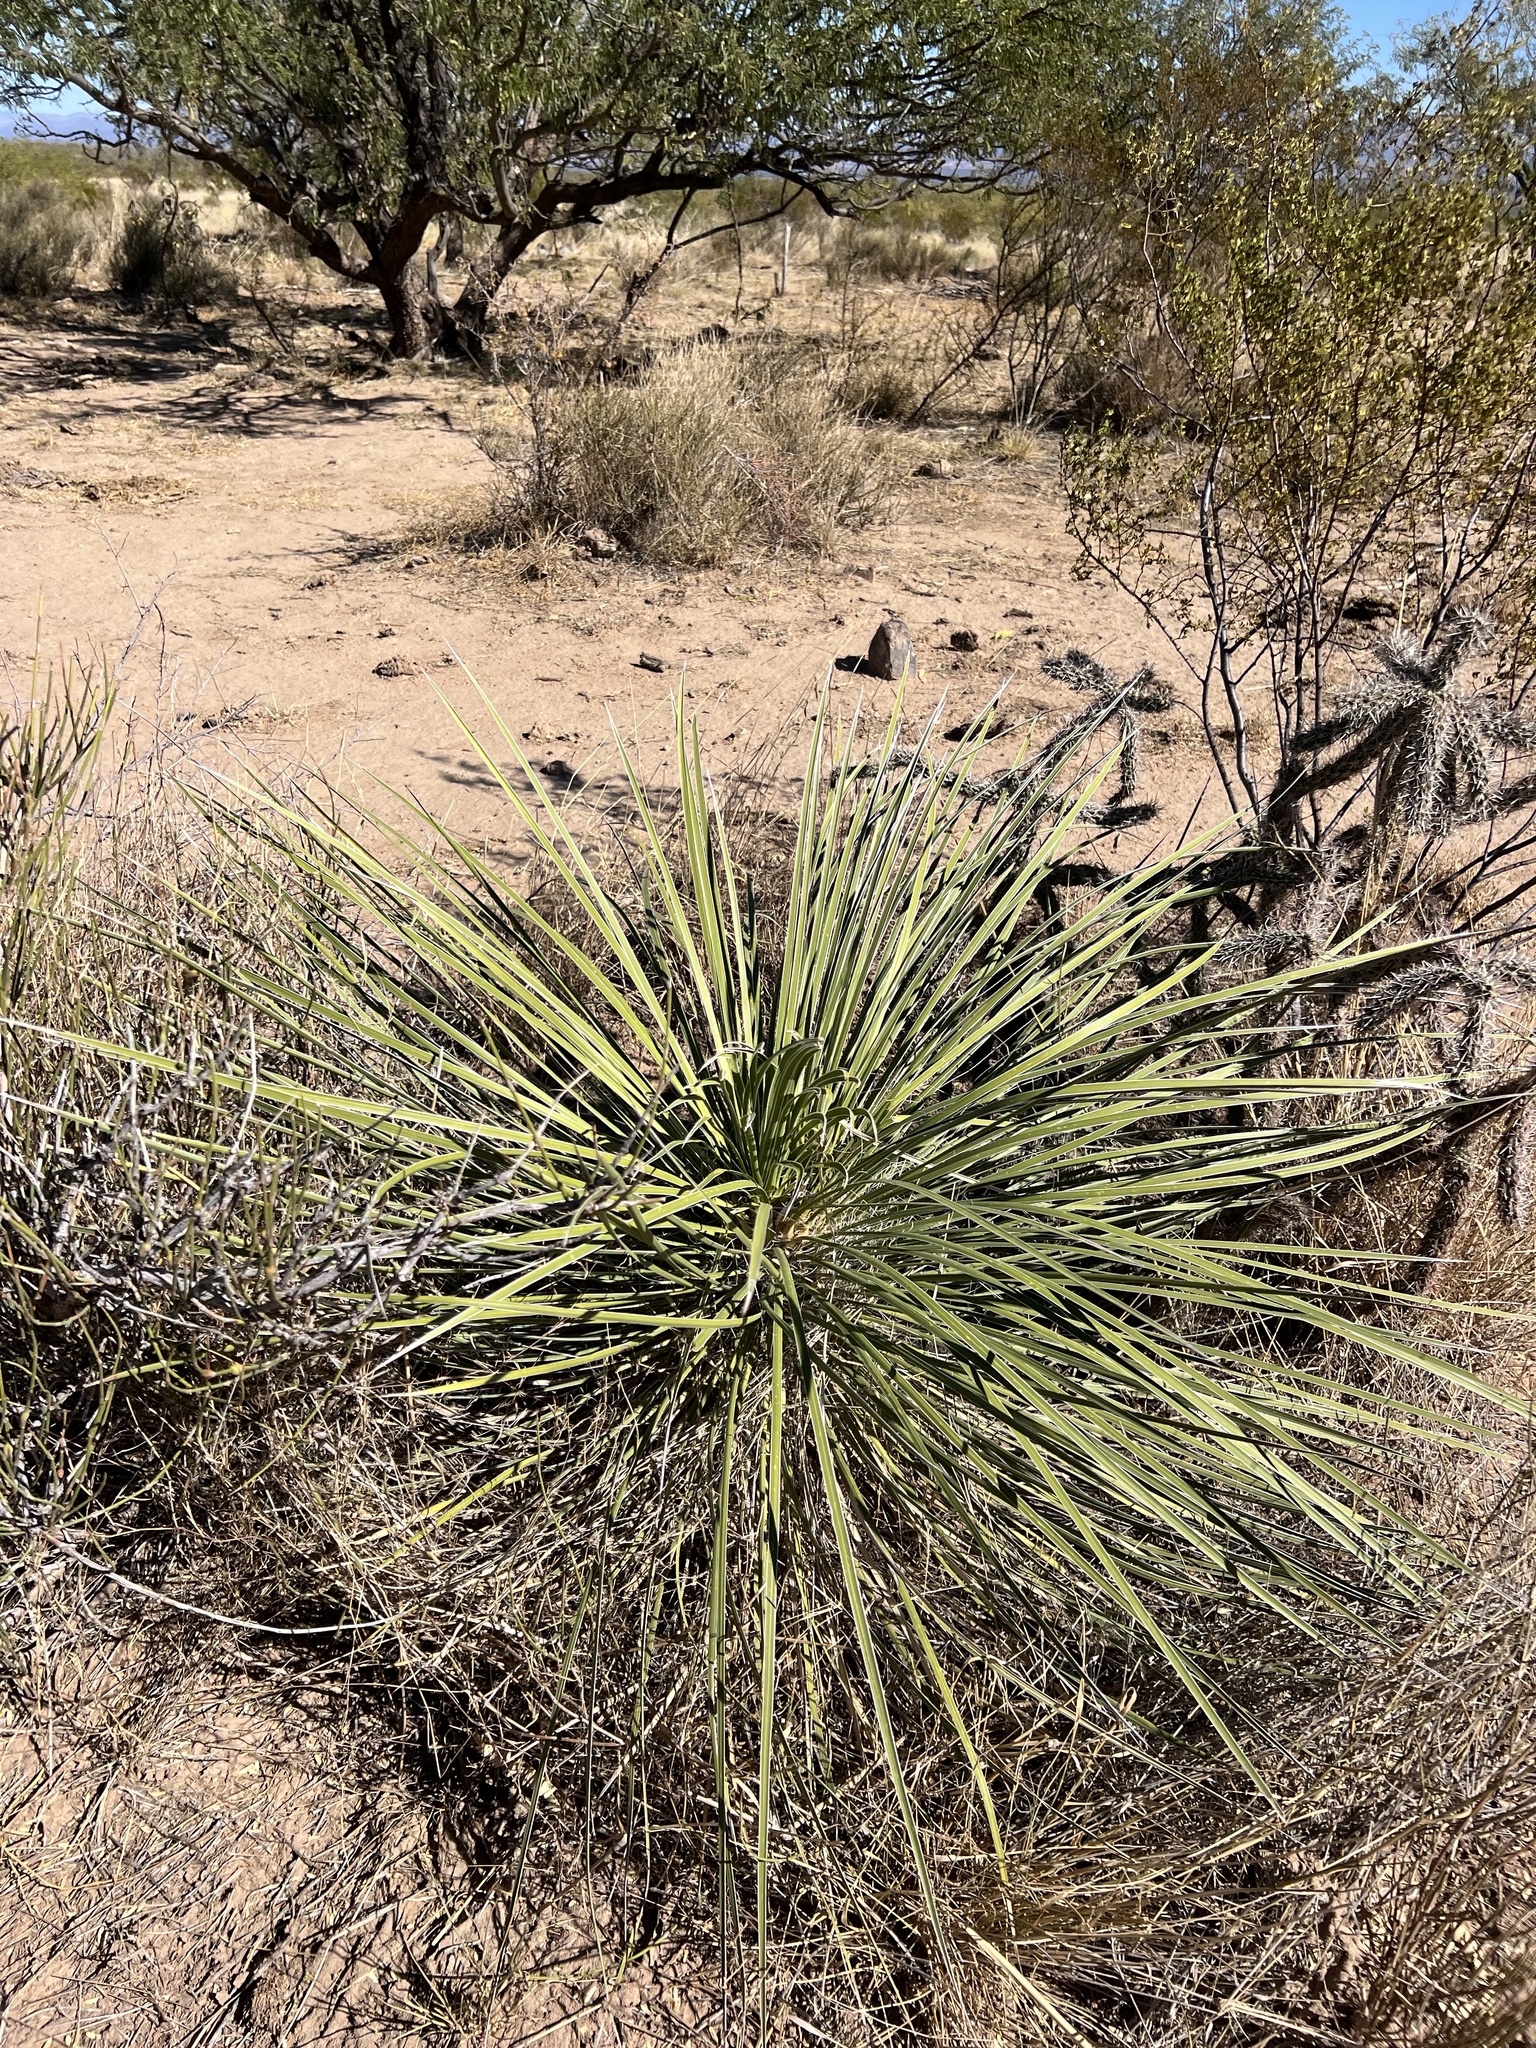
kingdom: Plantae
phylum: Tracheophyta
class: Liliopsida
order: Asparagales
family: Asparagaceae
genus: Yucca
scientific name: Yucca elata
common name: Palmella
